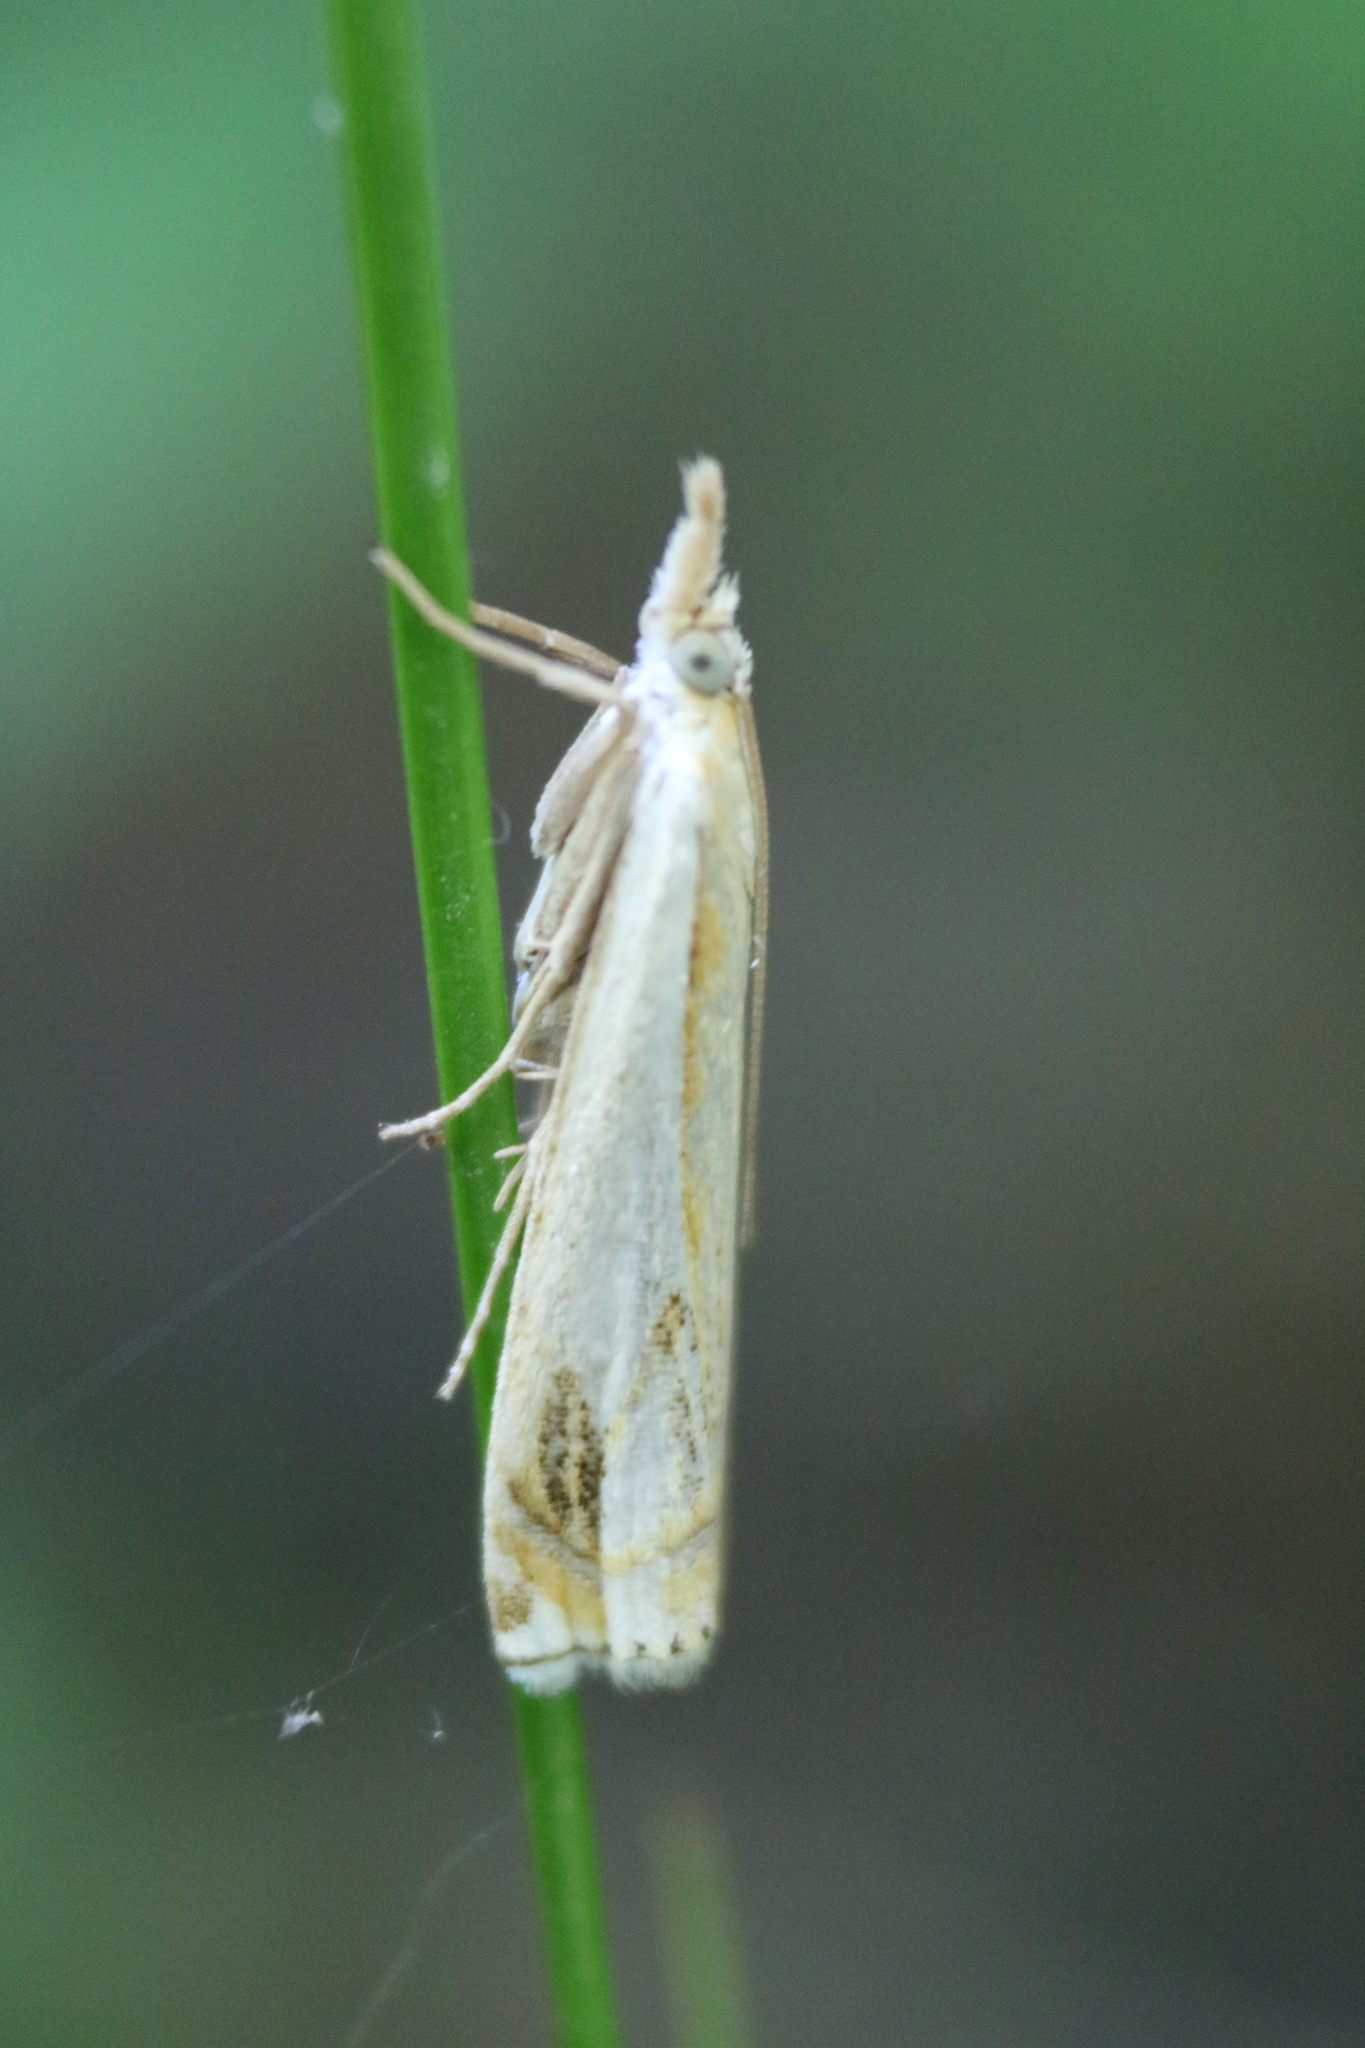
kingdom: Animalia
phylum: Arthropoda
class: Insecta
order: Lepidoptera
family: Crambidae
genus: Crambus
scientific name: Crambus agitatellus
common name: Double-banded grass-veneer
